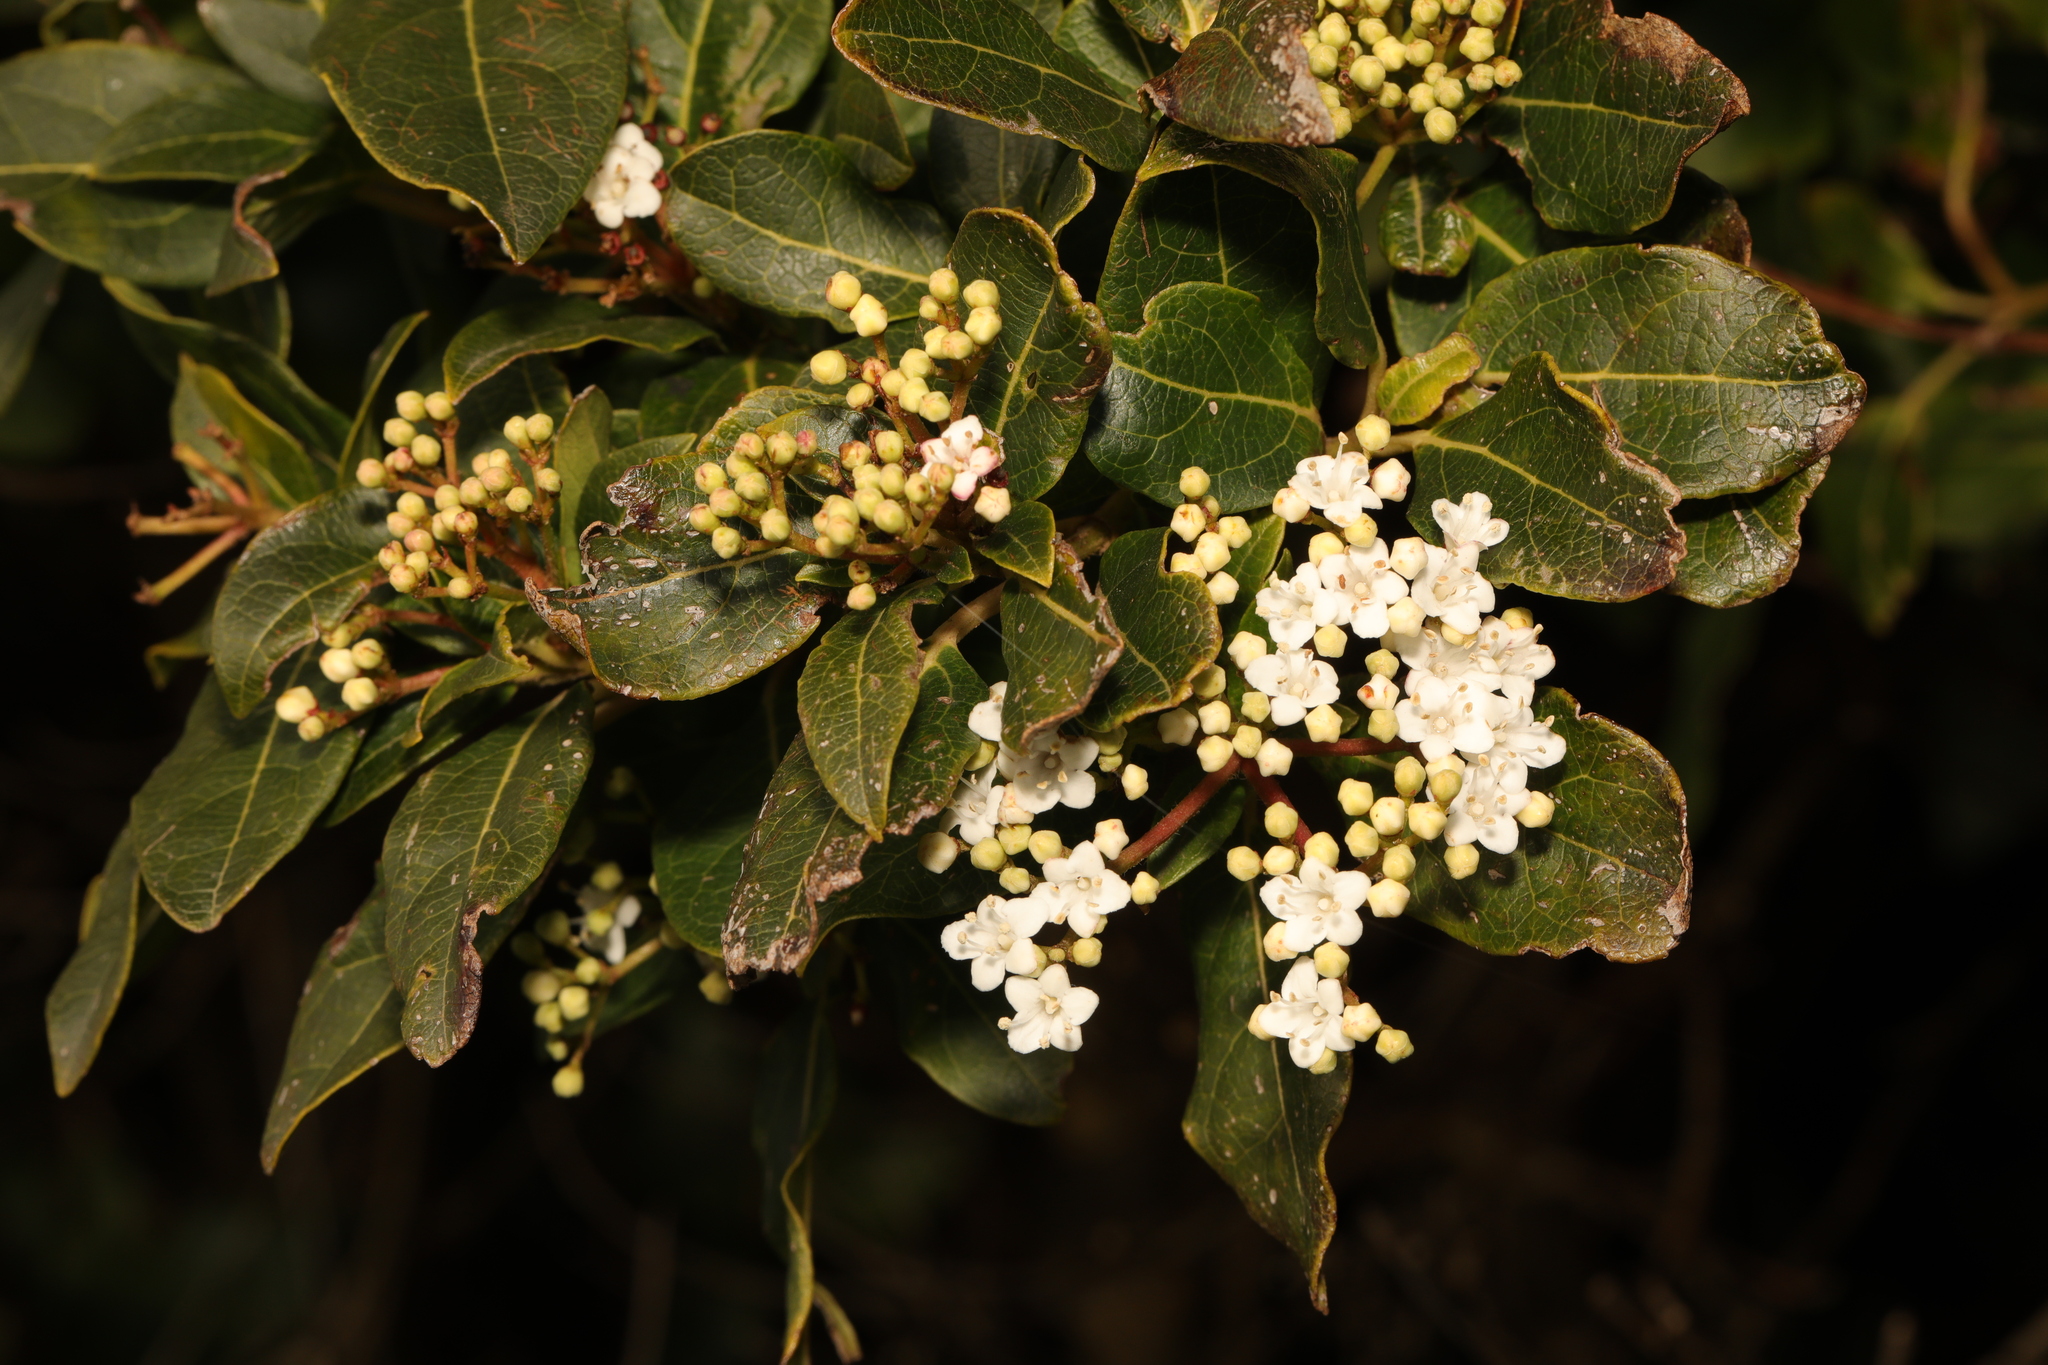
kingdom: Plantae
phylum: Tracheophyta
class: Magnoliopsida
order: Dipsacales
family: Viburnaceae
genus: Viburnum
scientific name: Viburnum tinus
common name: Laurustinus
